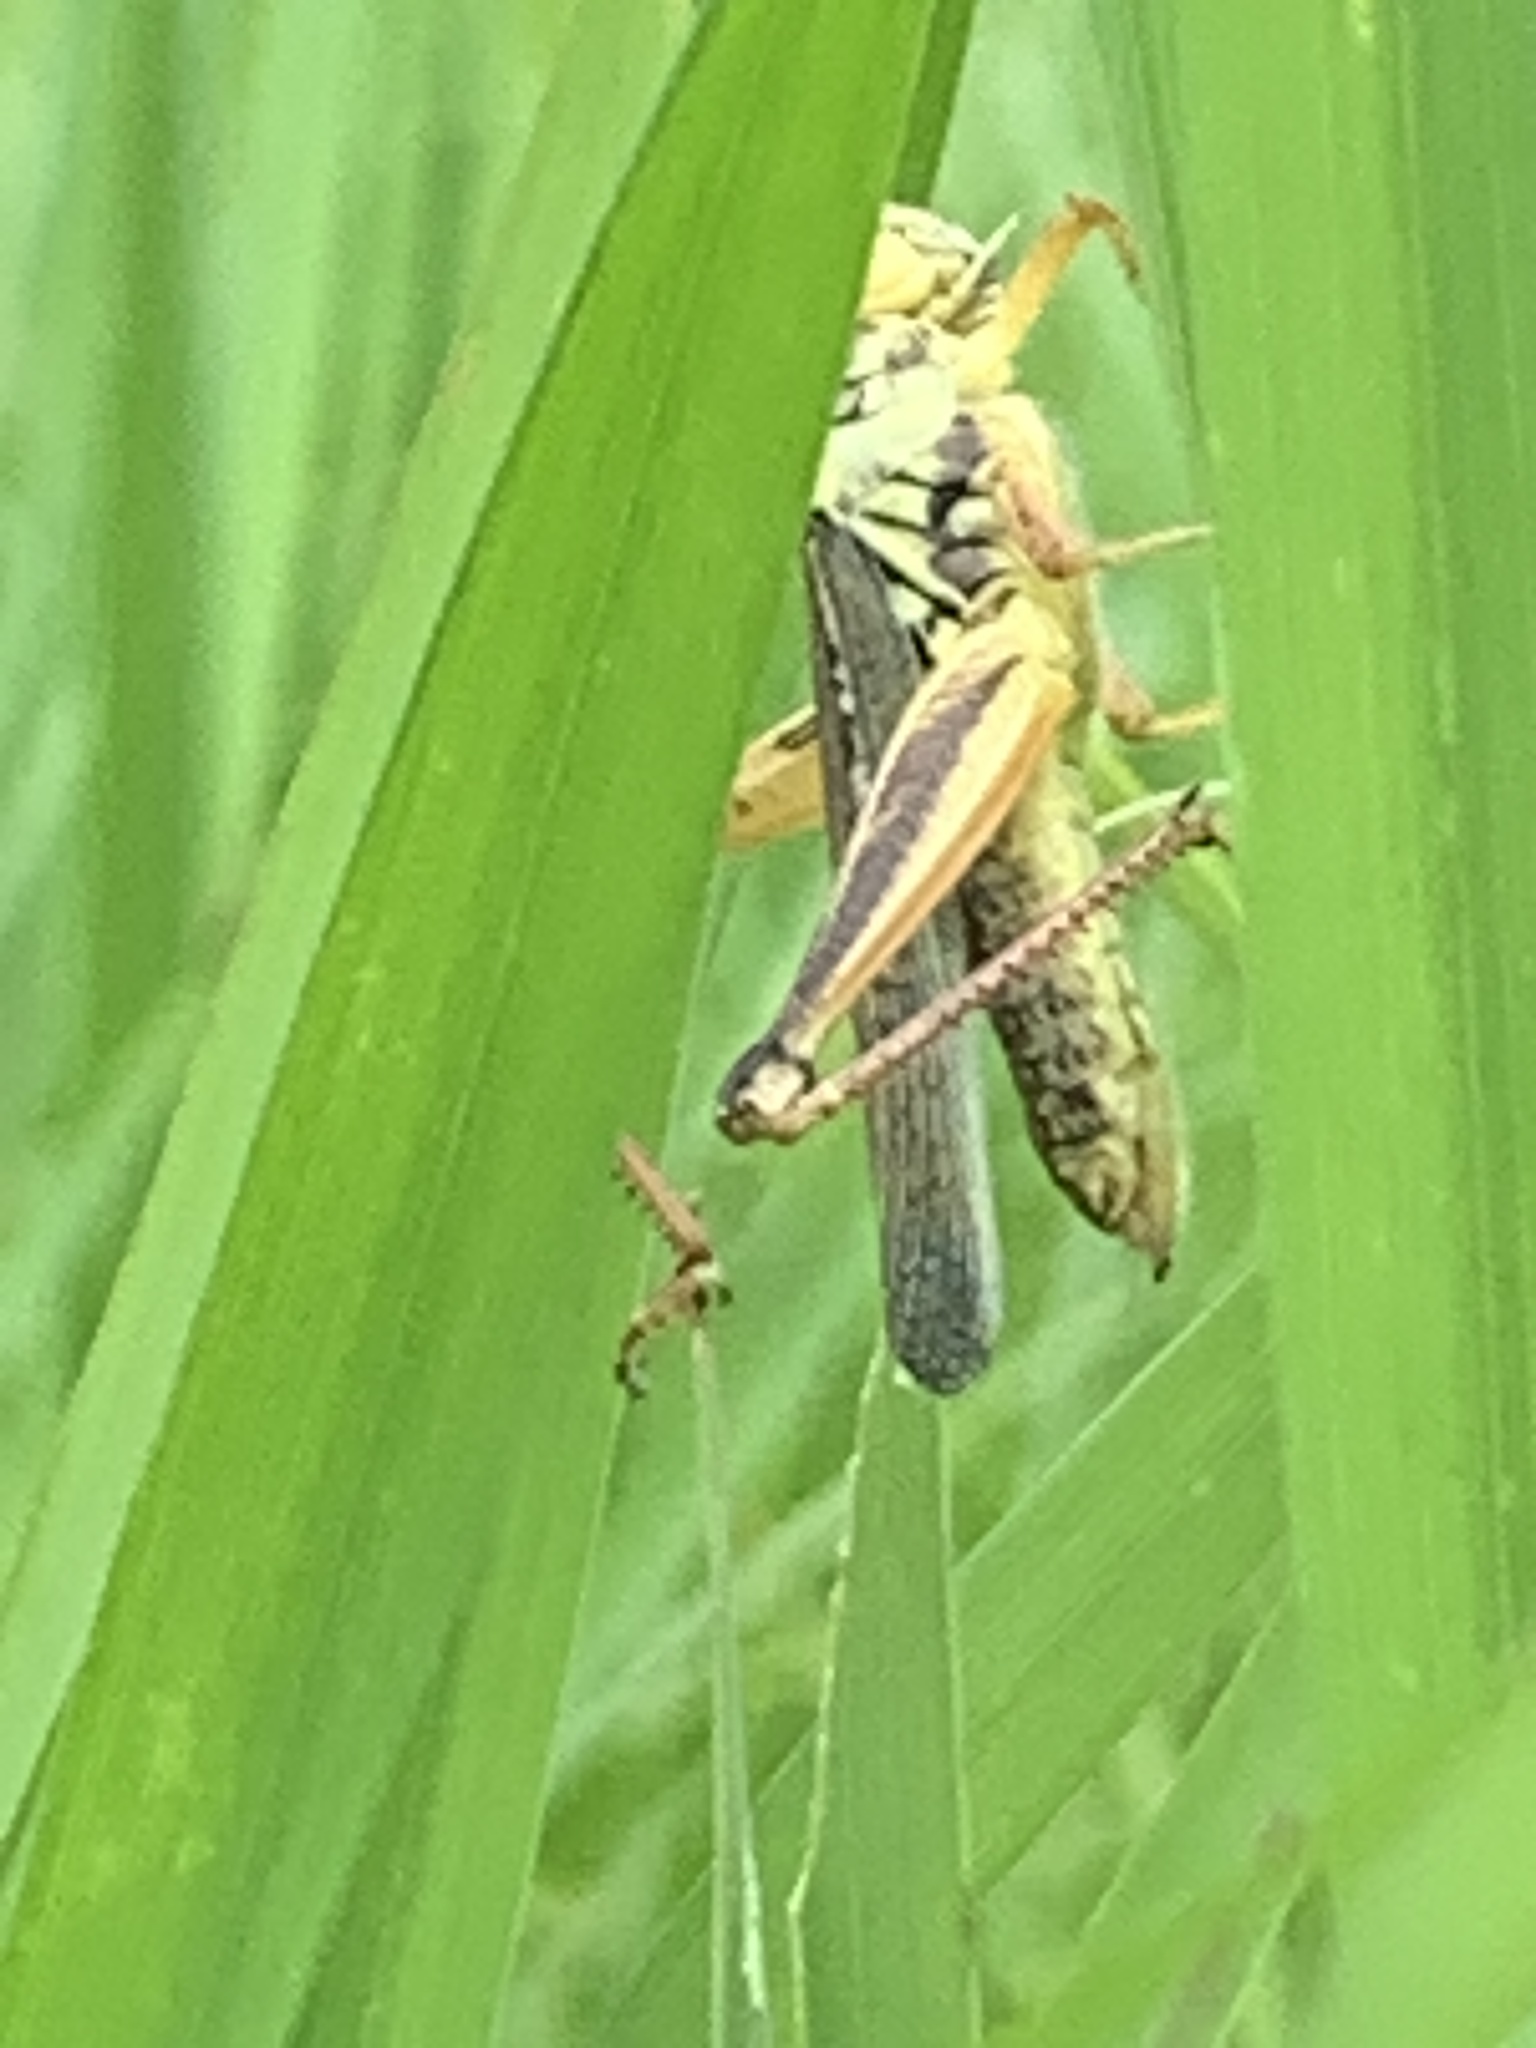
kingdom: Animalia
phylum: Arthropoda
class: Insecta
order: Orthoptera
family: Acrididae
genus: Melanoplus
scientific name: Melanoplus femurrubrum
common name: Red-legged grasshopper
